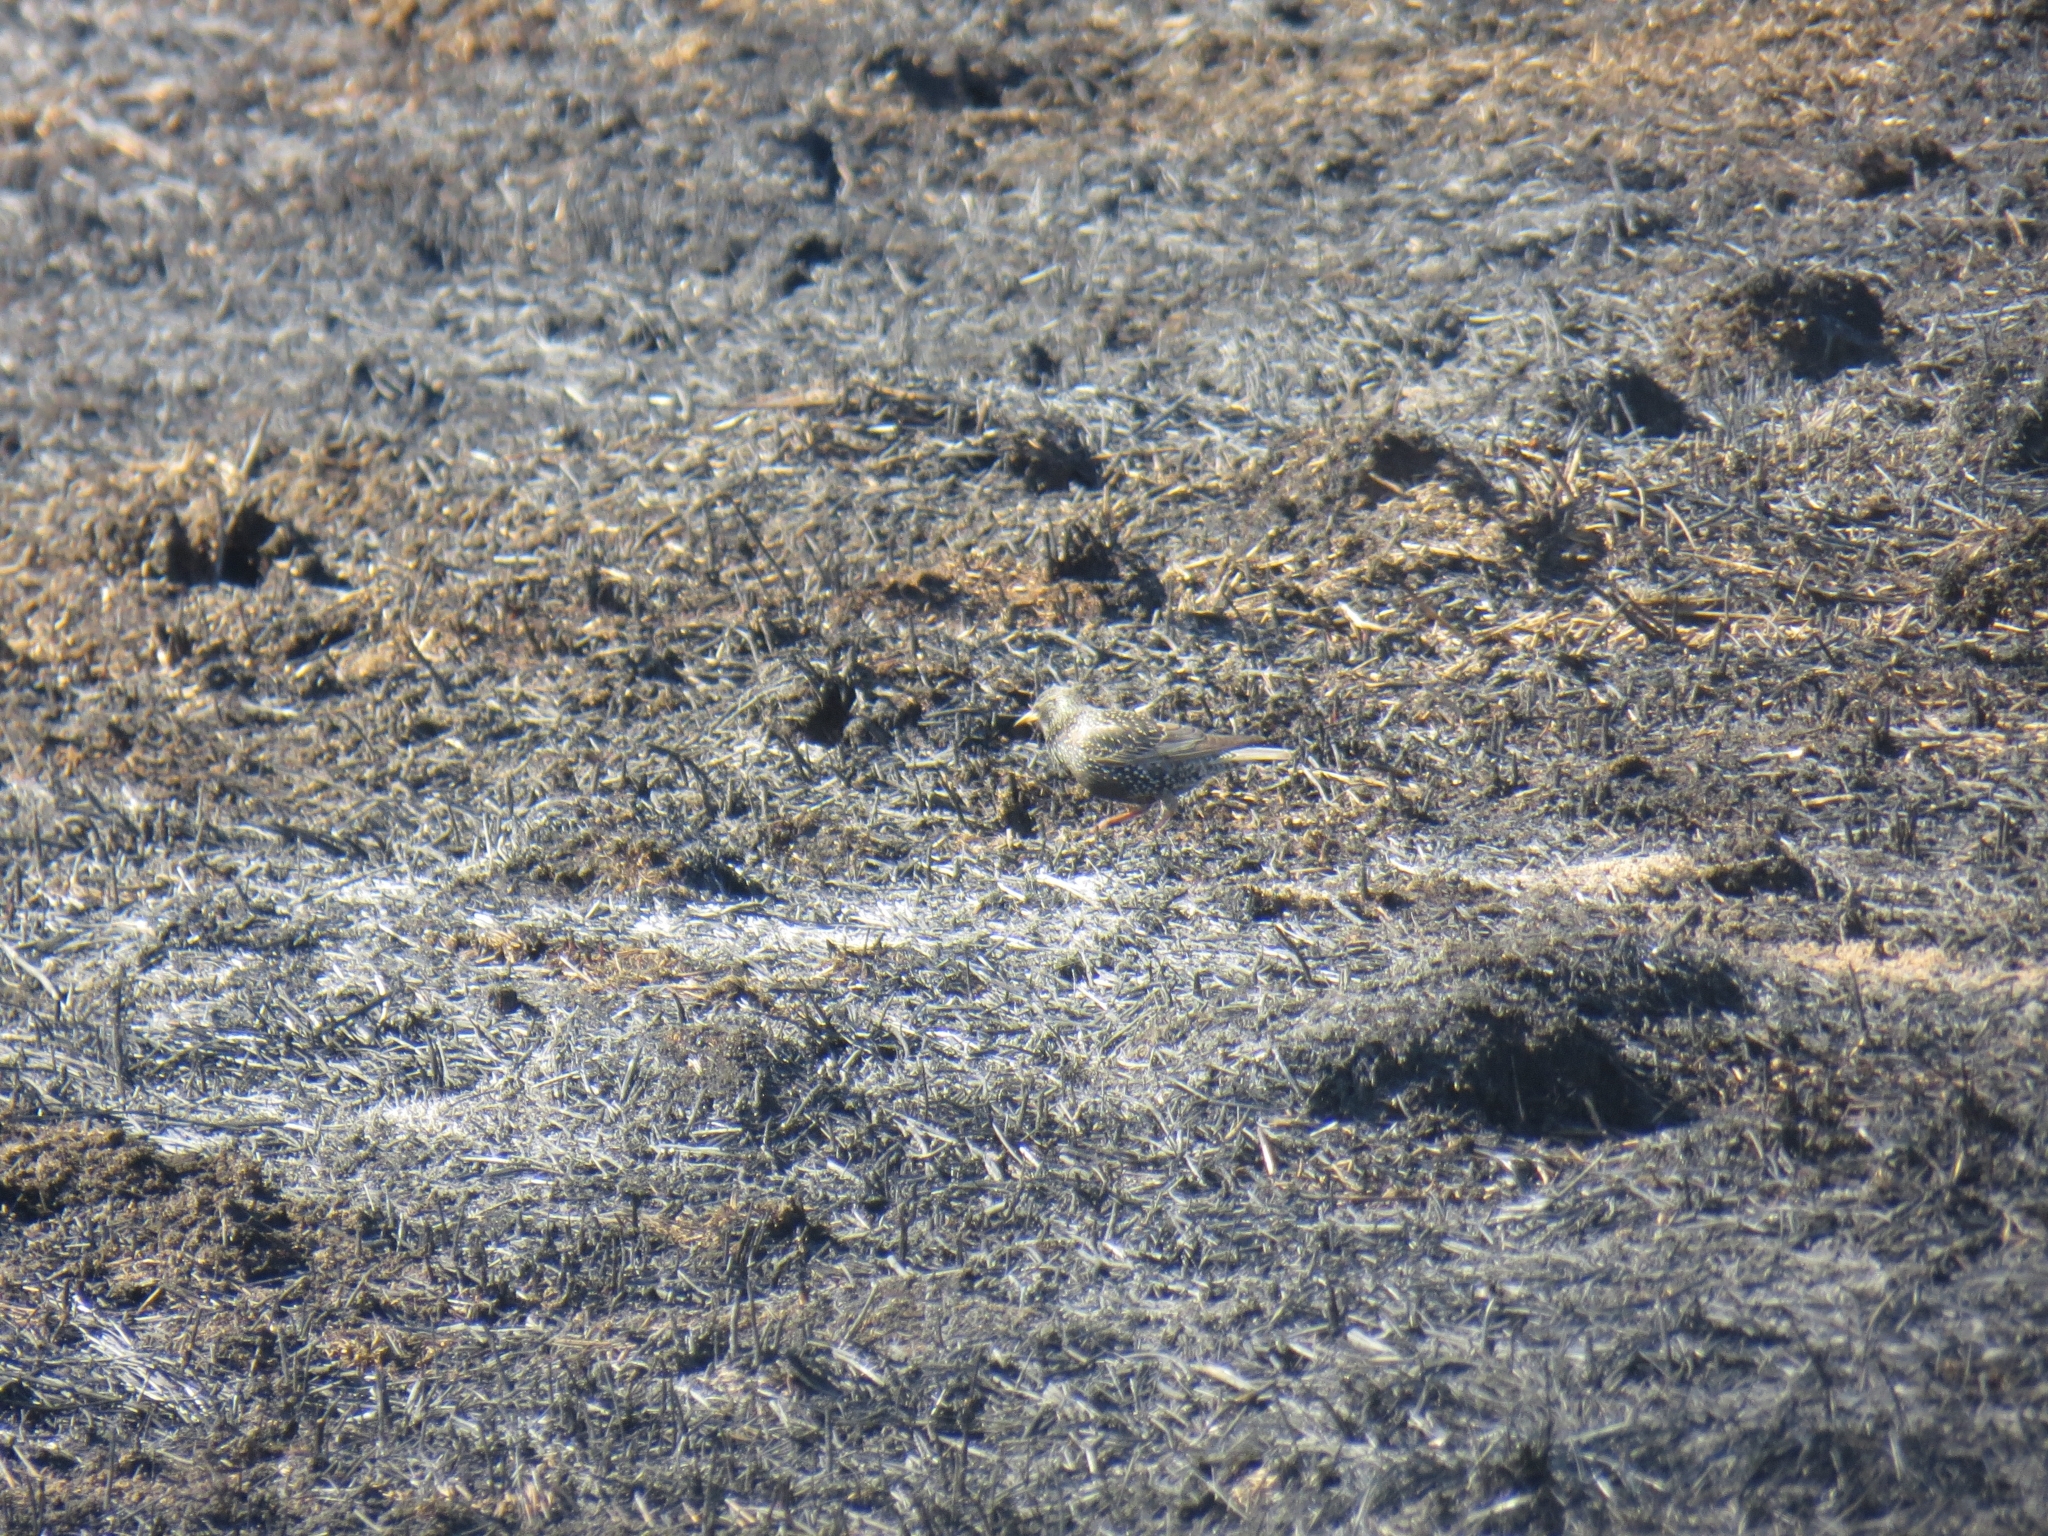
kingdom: Animalia
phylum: Chordata
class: Aves
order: Passeriformes
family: Sturnidae
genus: Sturnus
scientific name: Sturnus vulgaris
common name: Common starling
